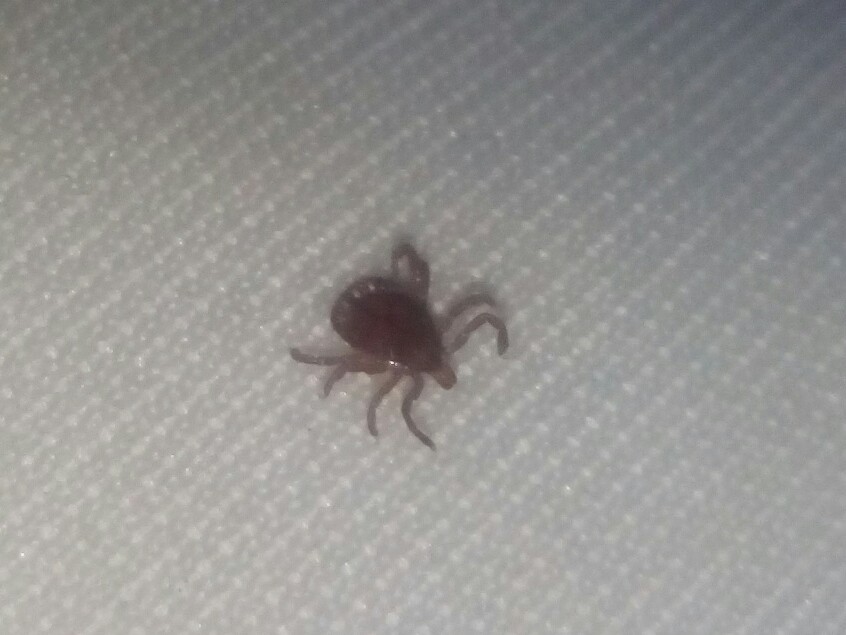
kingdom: Animalia
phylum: Arthropoda
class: Arachnida
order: Ixodida
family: Ixodidae
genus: Amblyomma
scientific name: Amblyomma americanum
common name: Lone star tick
